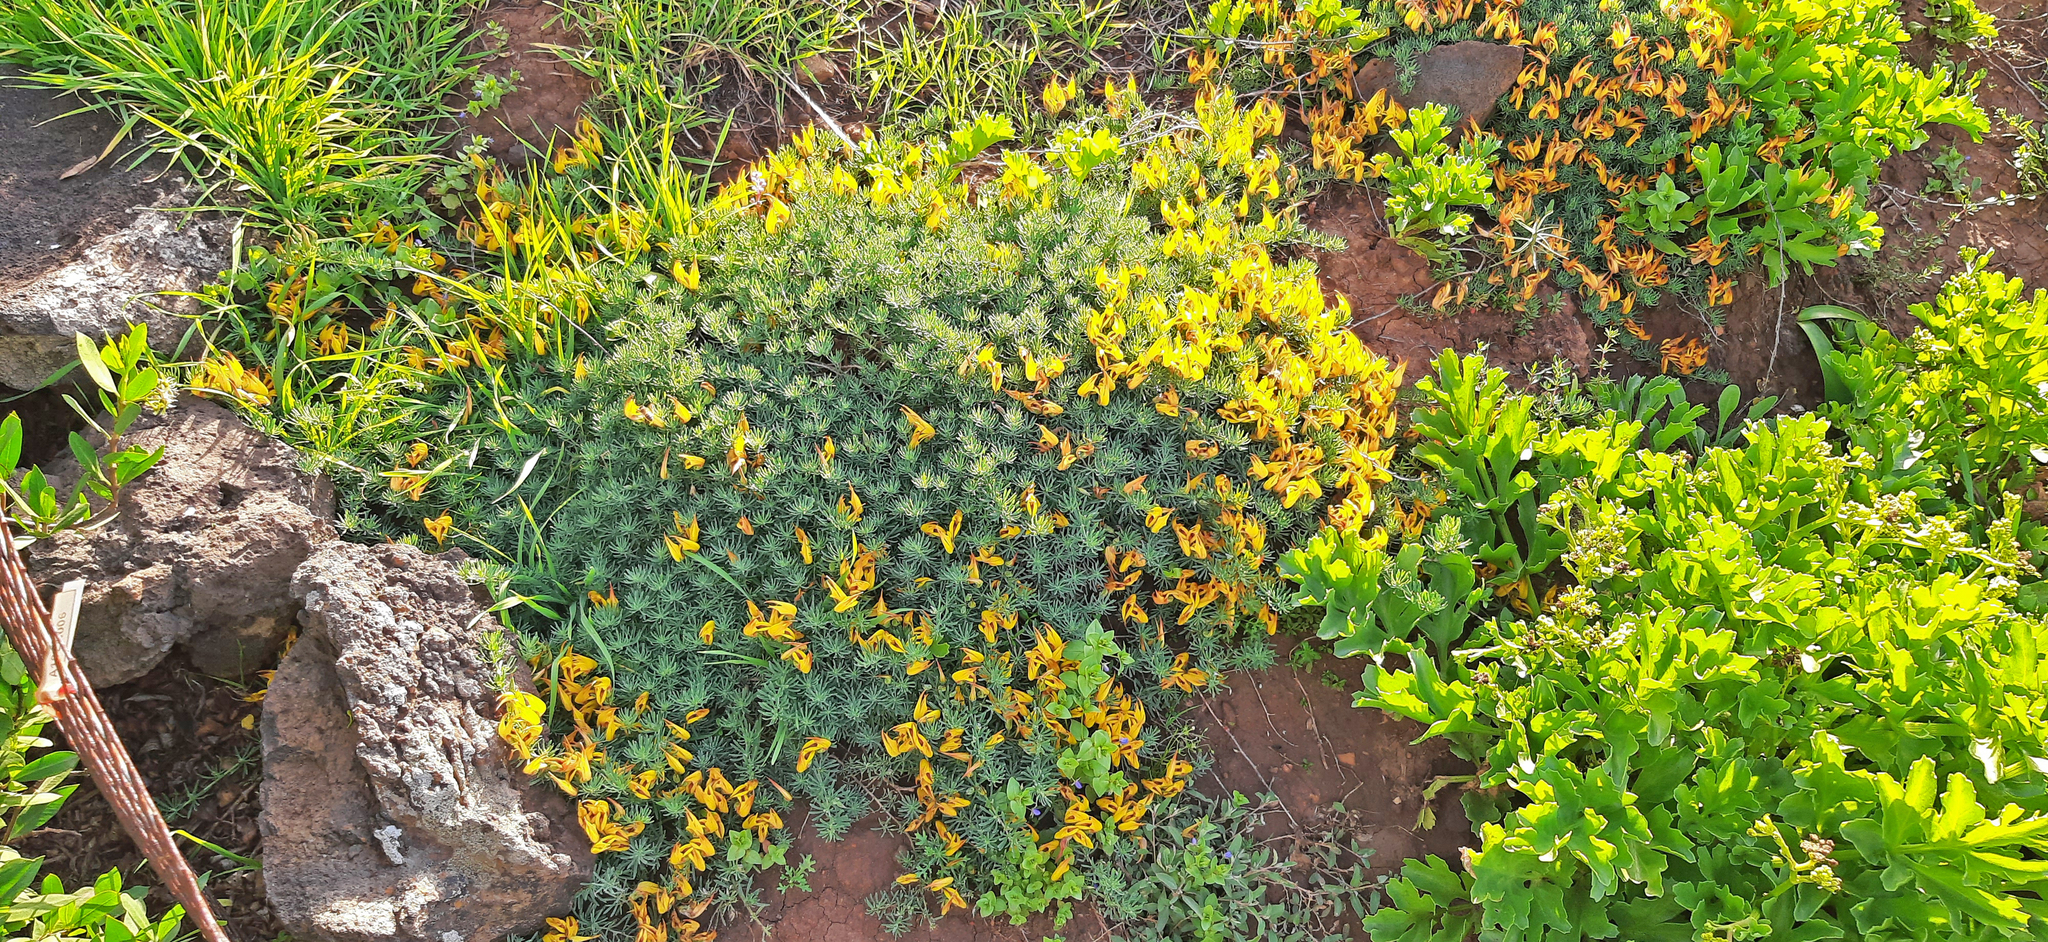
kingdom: Plantae
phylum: Tracheophyta
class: Magnoliopsida
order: Fabales
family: Fabaceae
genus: Lotus
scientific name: Lotus maculatus
